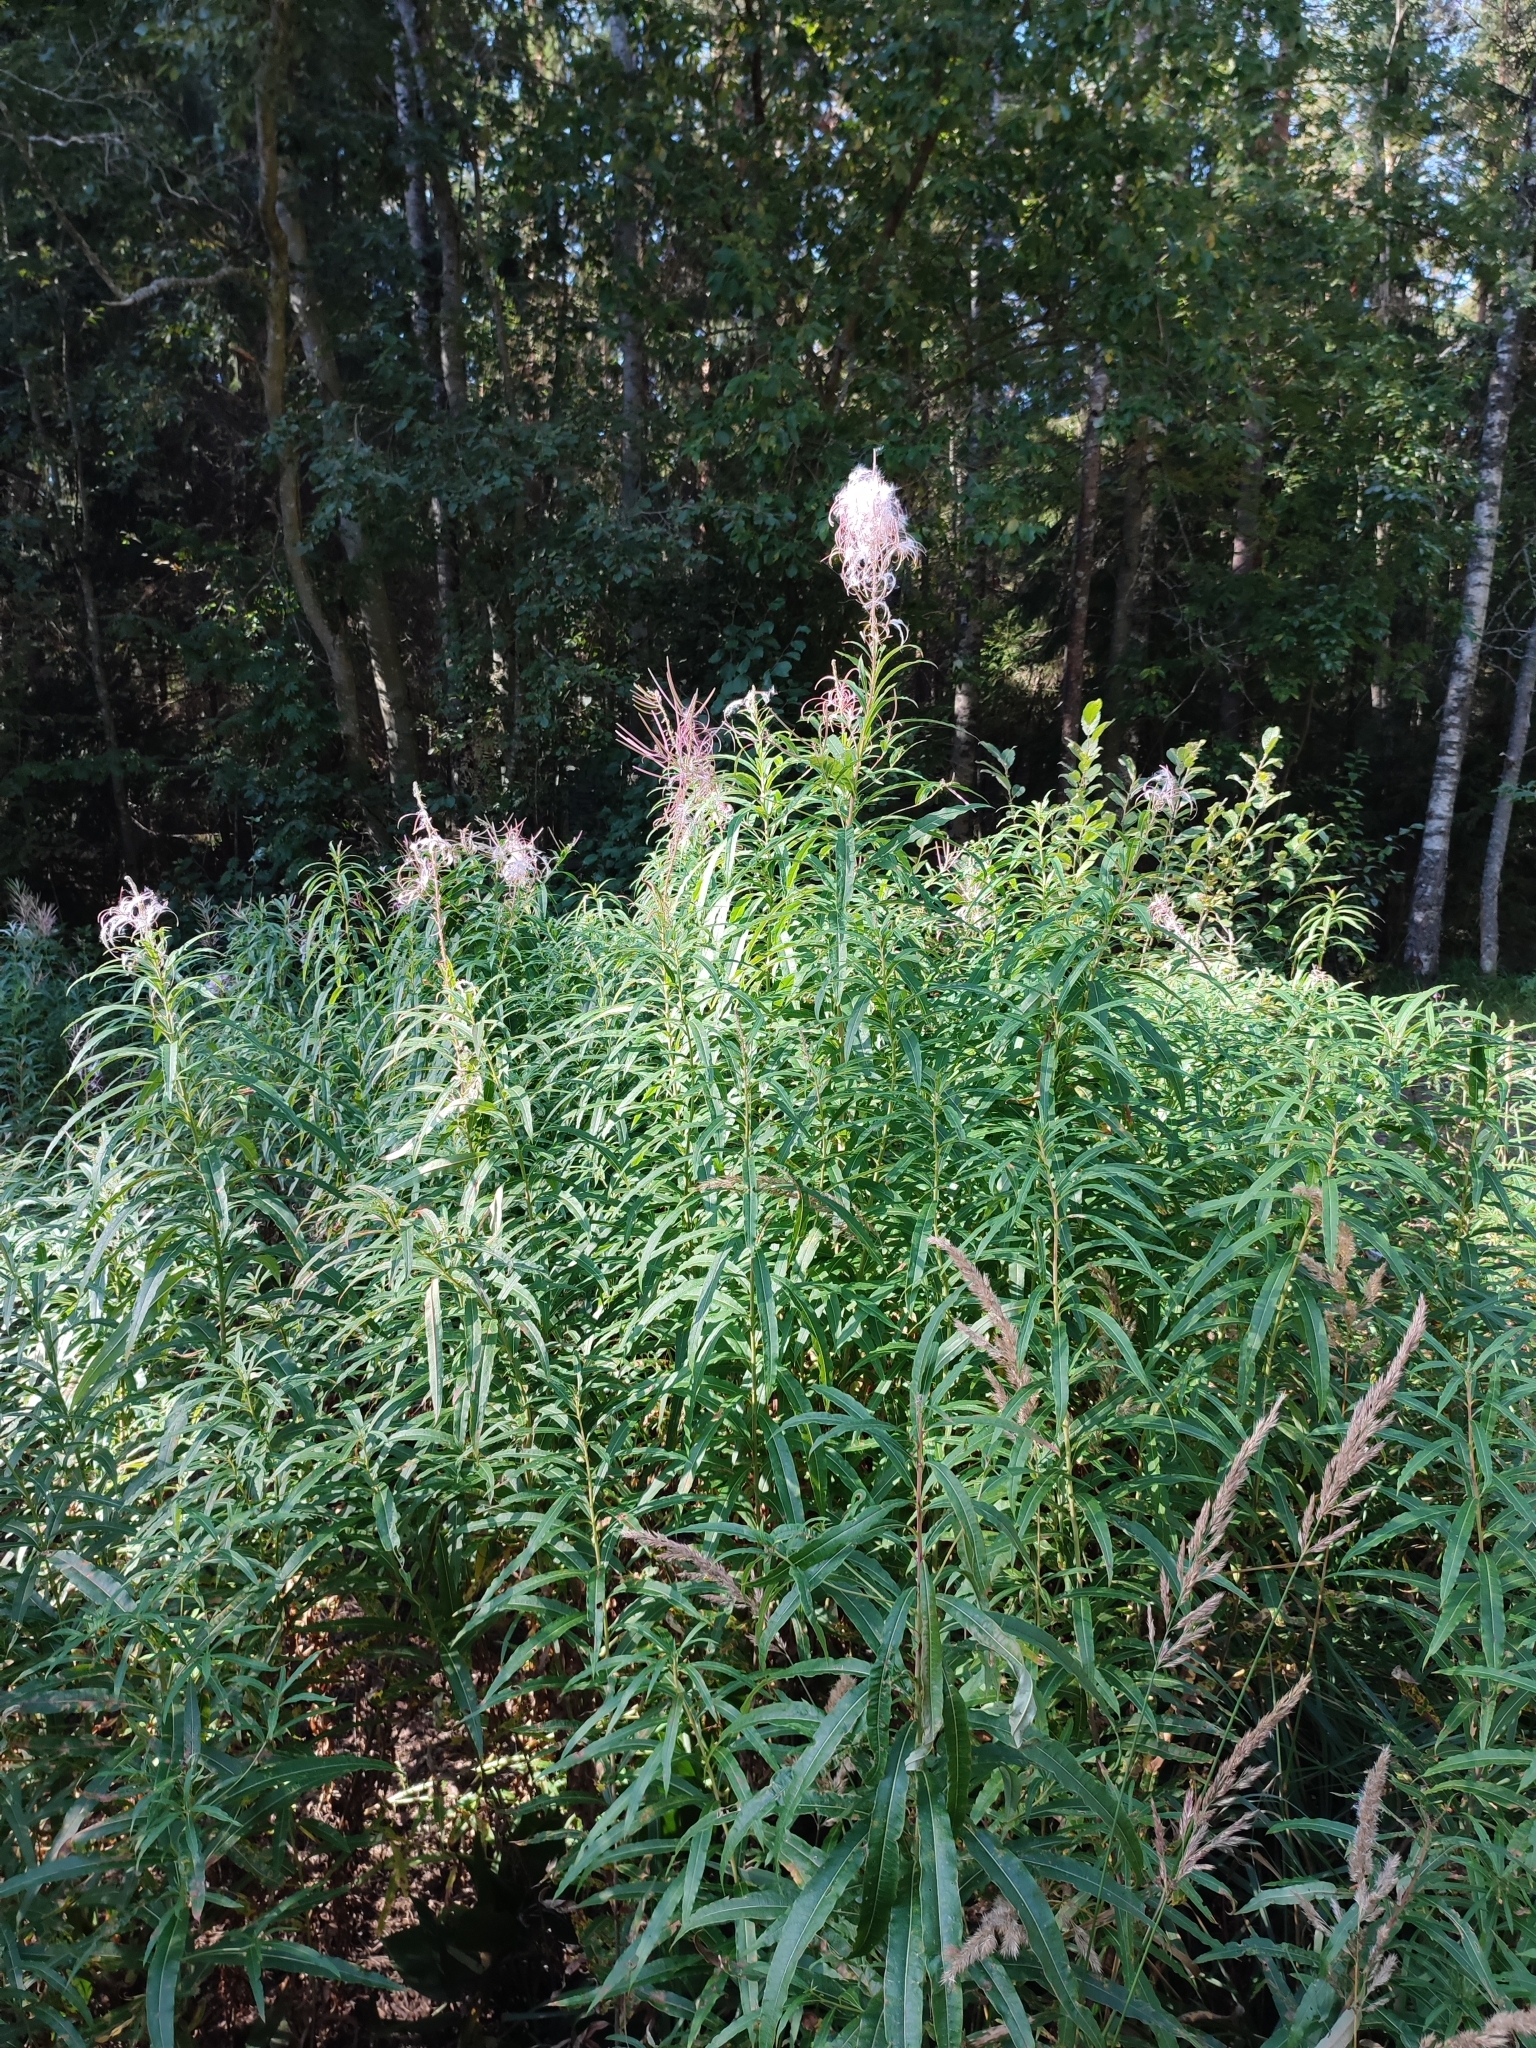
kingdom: Plantae
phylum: Tracheophyta
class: Magnoliopsida
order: Myrtales
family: Onagraceae
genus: Chamaenerion
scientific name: Chamaenerion angustifolium
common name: Fireweed
